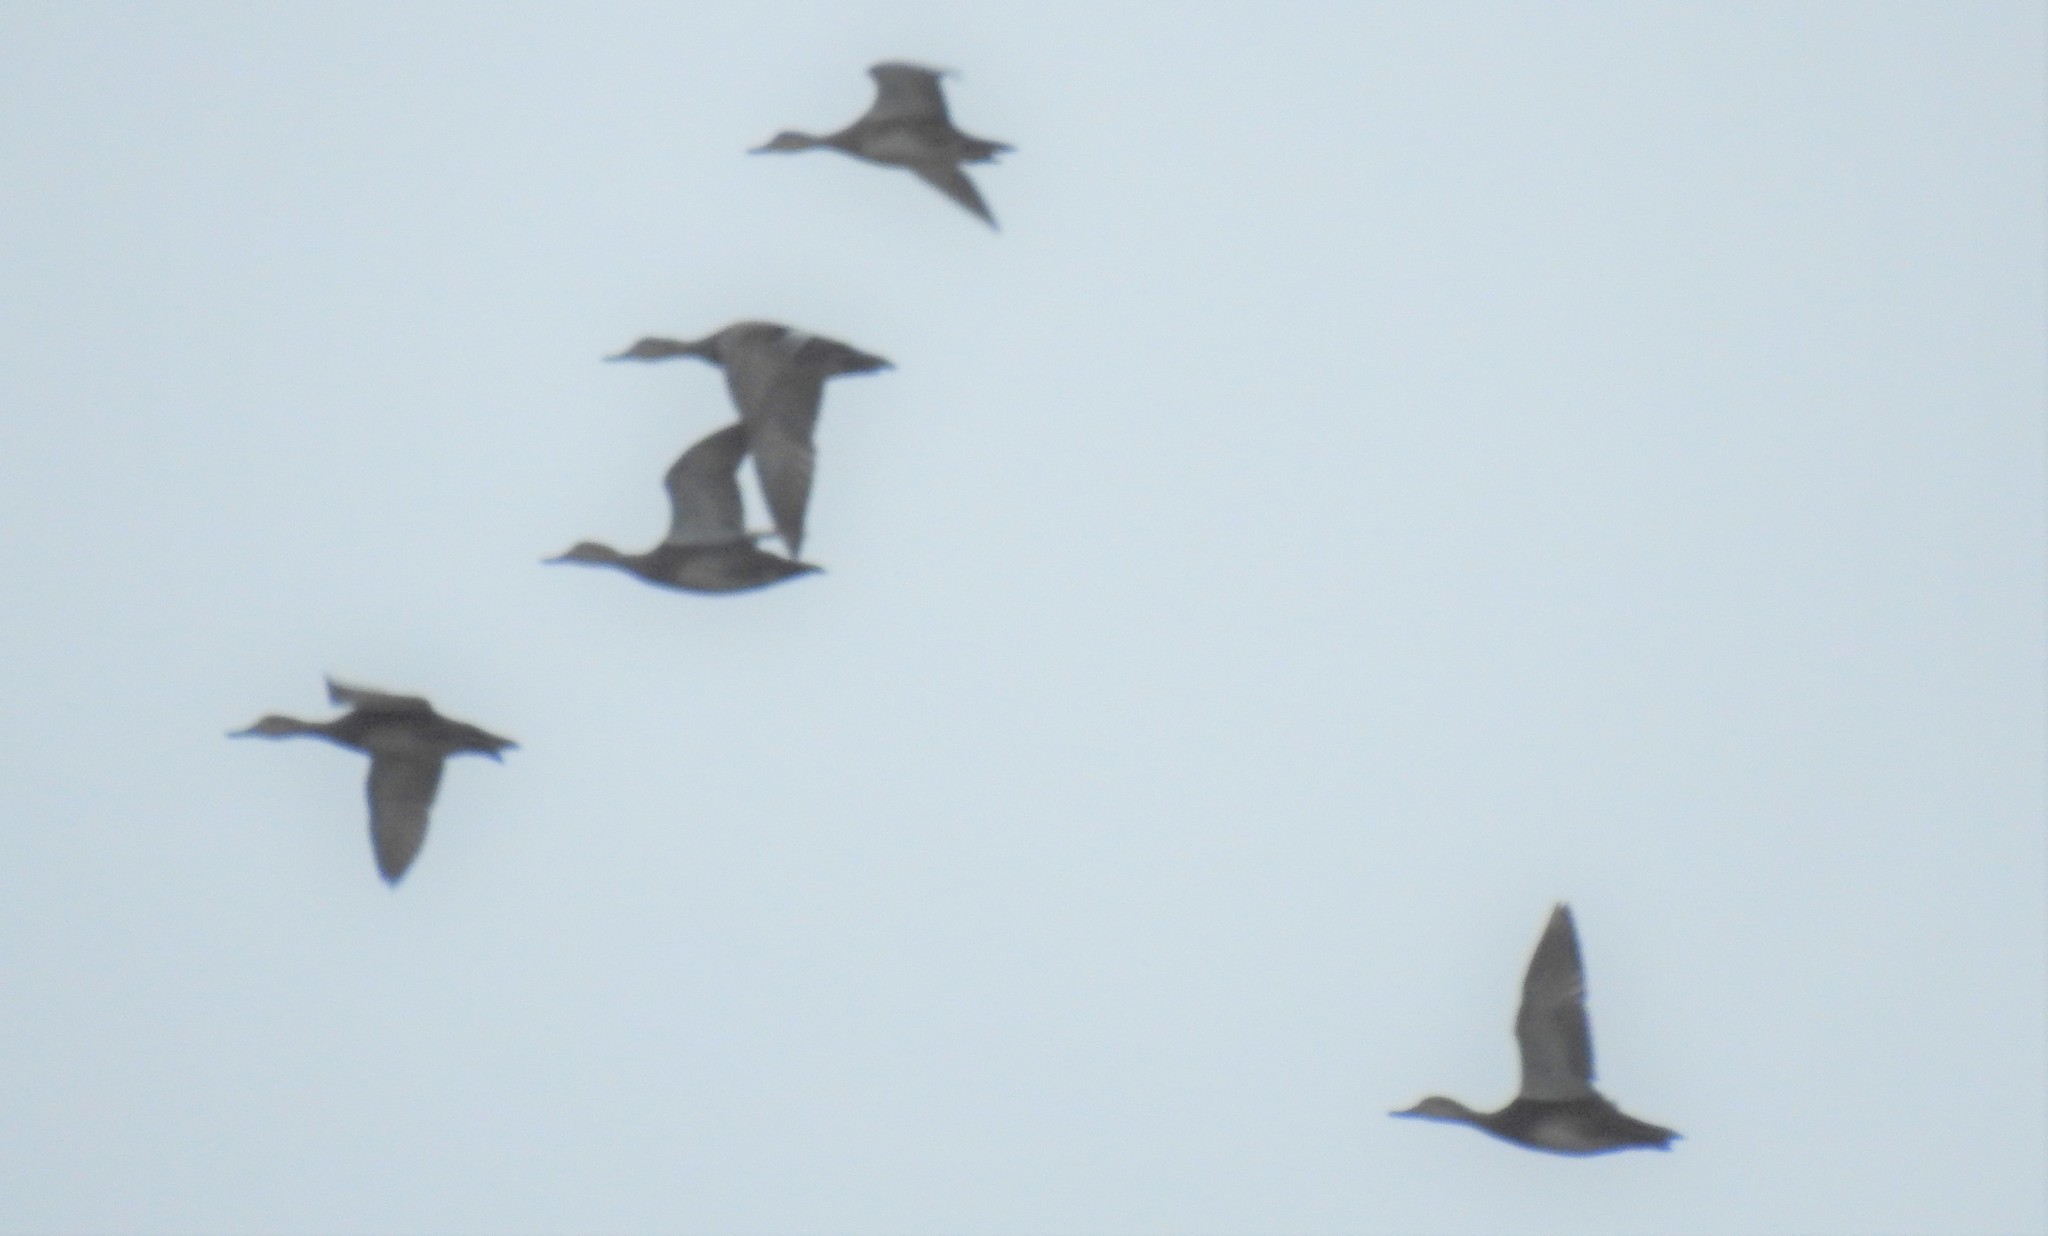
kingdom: Animalia
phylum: Chordata
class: Aves
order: Anseriformes
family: Anatidae
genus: Mareca
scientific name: Mareca strepera
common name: Gadwall
